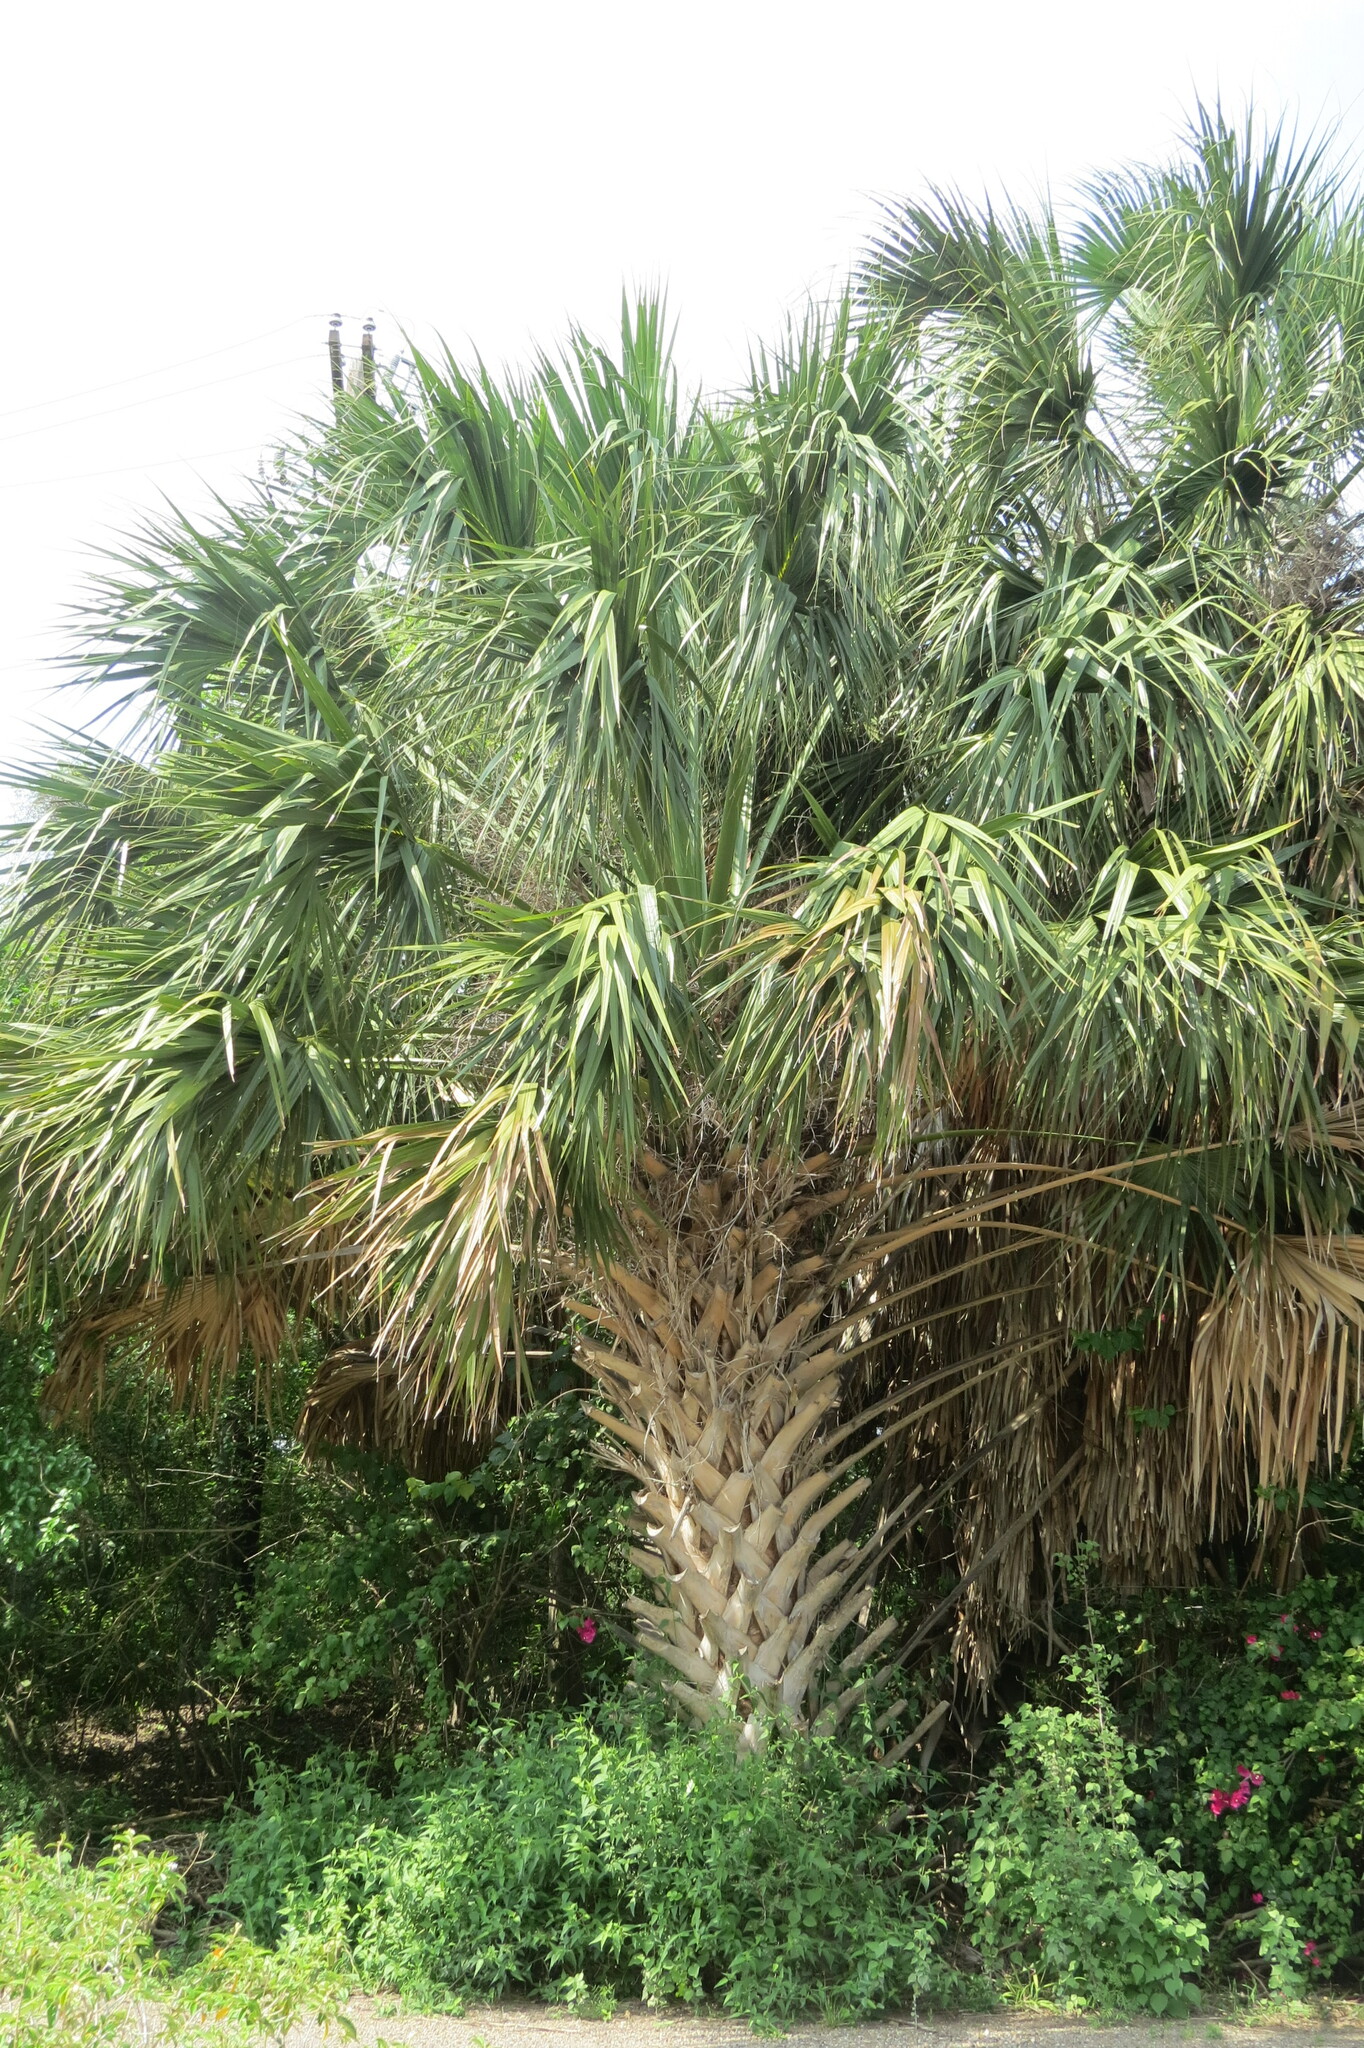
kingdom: Plantae
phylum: Tracheophyta
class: Liliopsida
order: Arecales
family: Arecaceae
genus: Sabal
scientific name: Sabal mexicana
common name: Texas palmetto
